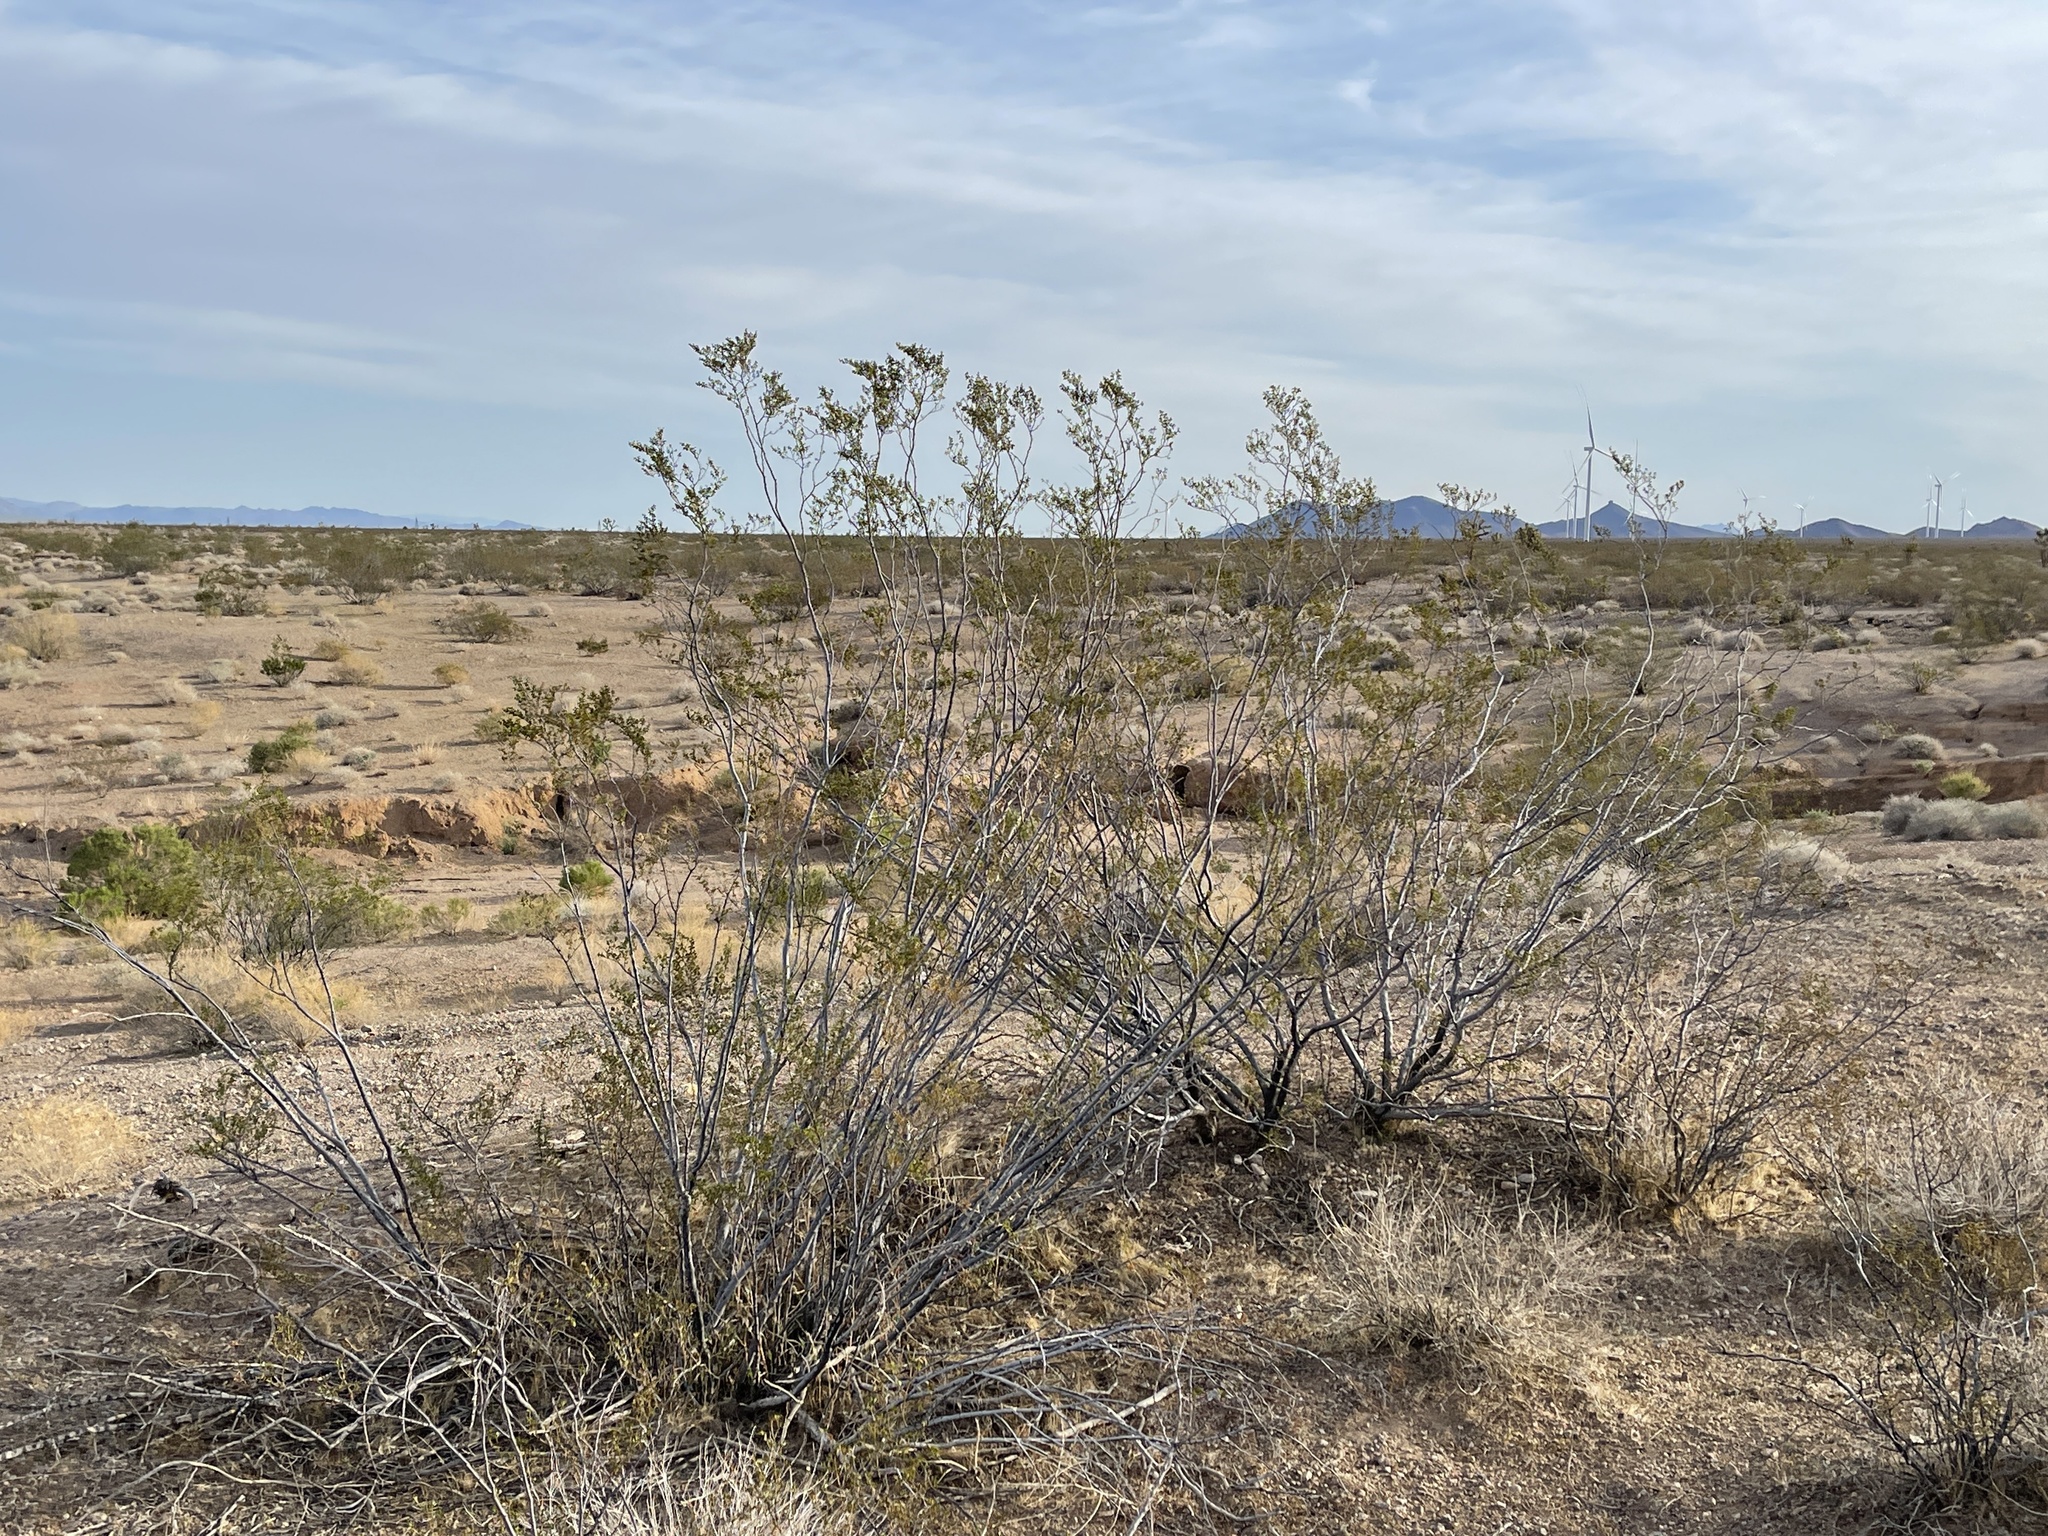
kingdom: Plantae
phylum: Tracheophyta
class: Magnoliopsida
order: Zygophyllales
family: Zygophyllaceae
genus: Larrea
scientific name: Larrea tridentata
